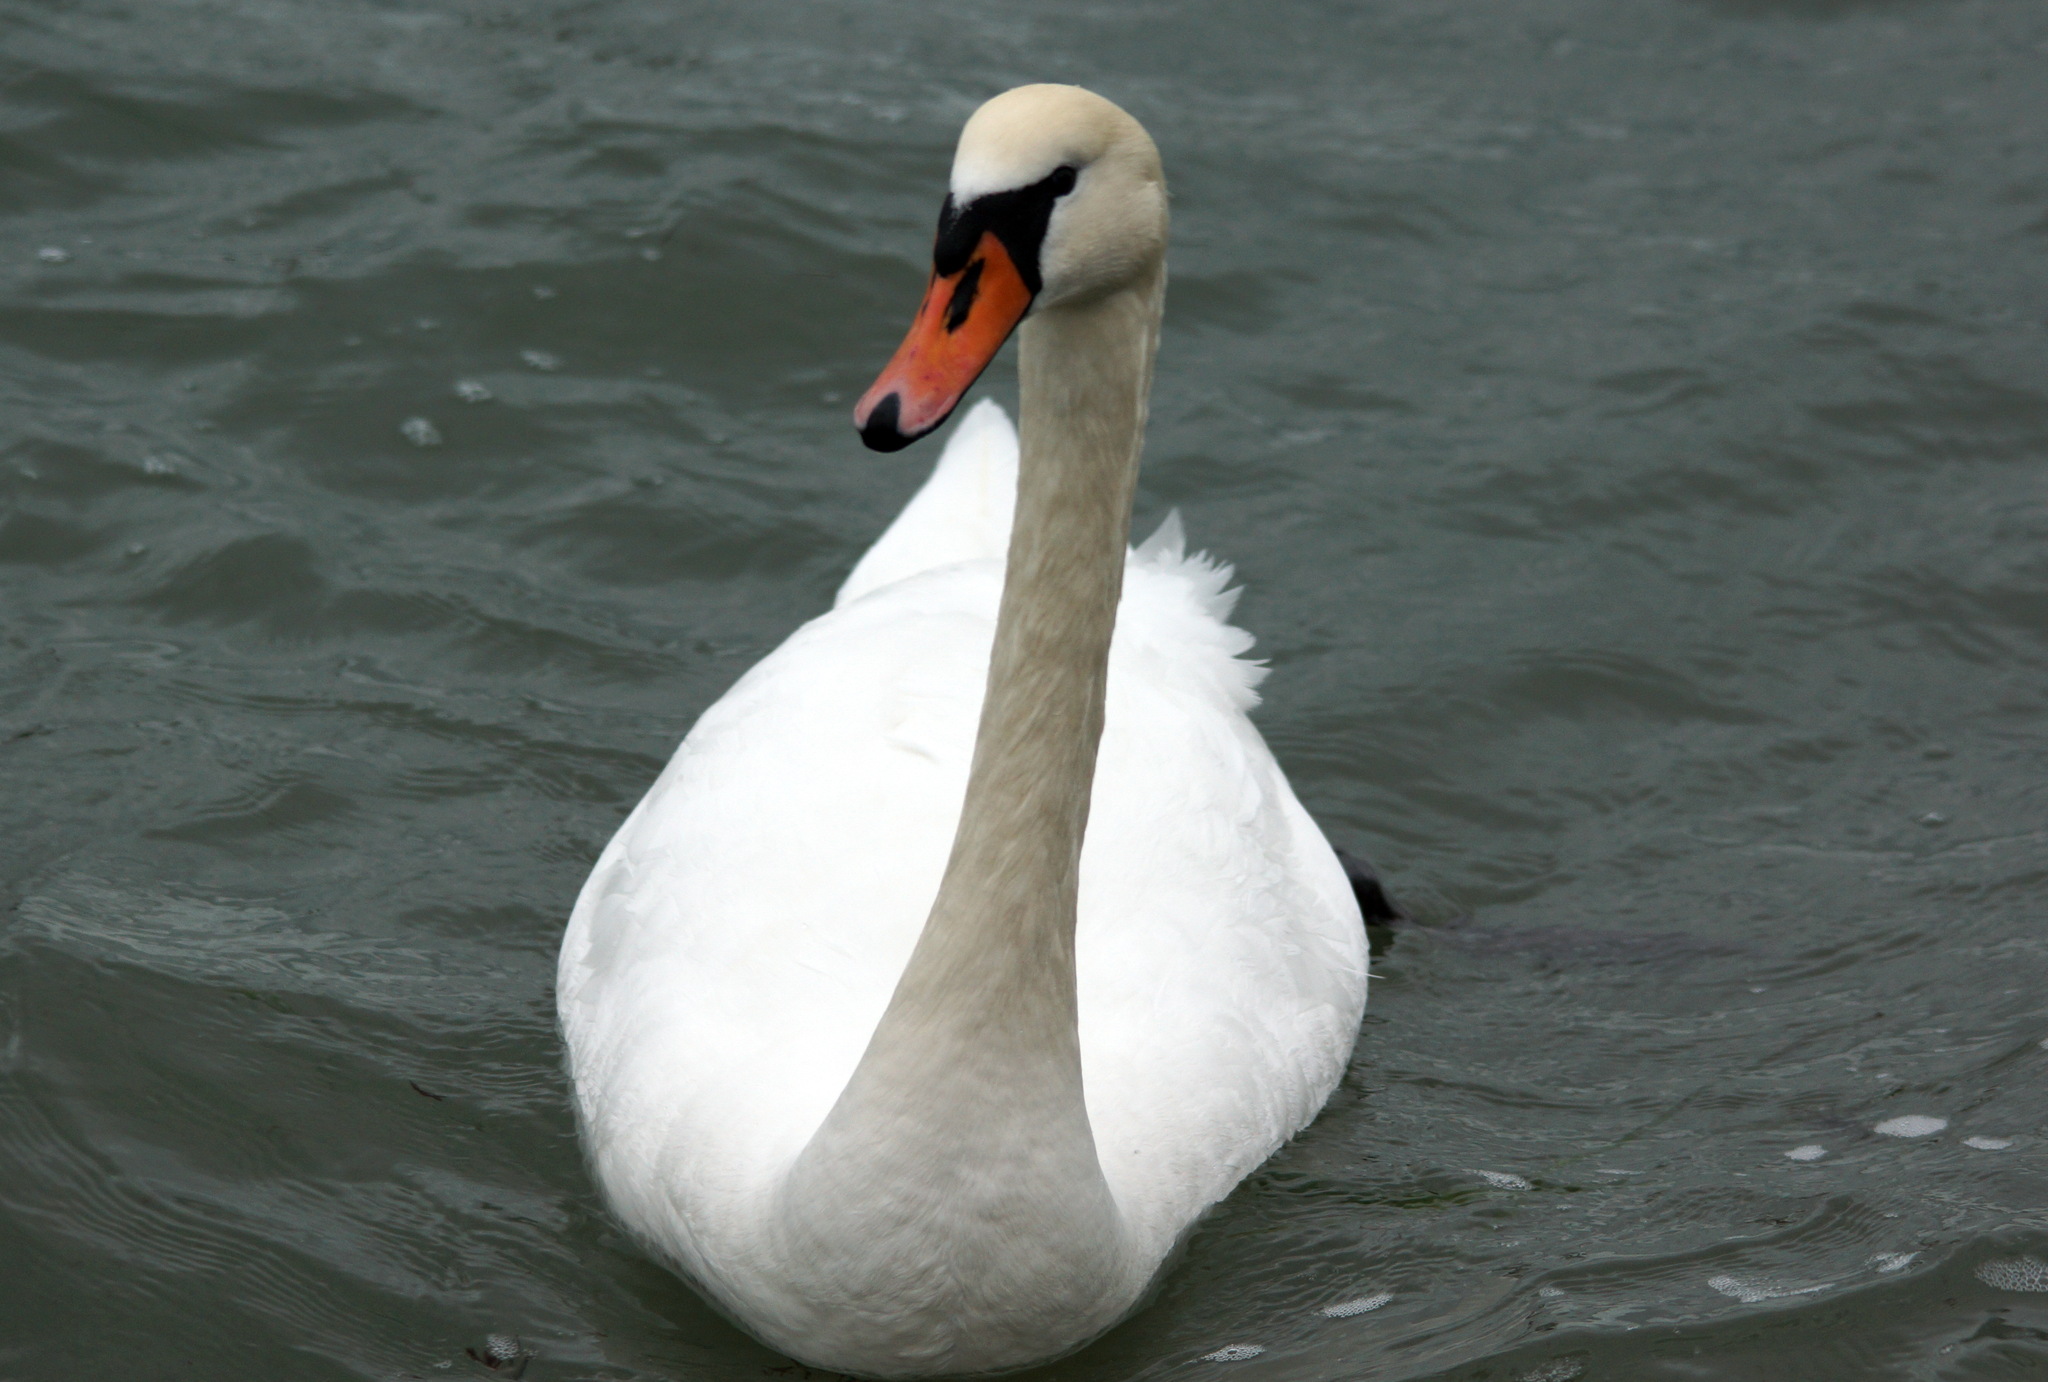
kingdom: Animalia
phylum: Chordata
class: Aves
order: Anseriformes
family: Anatidae
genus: Cygnus
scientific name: Cygnus olor
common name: Mute swan
